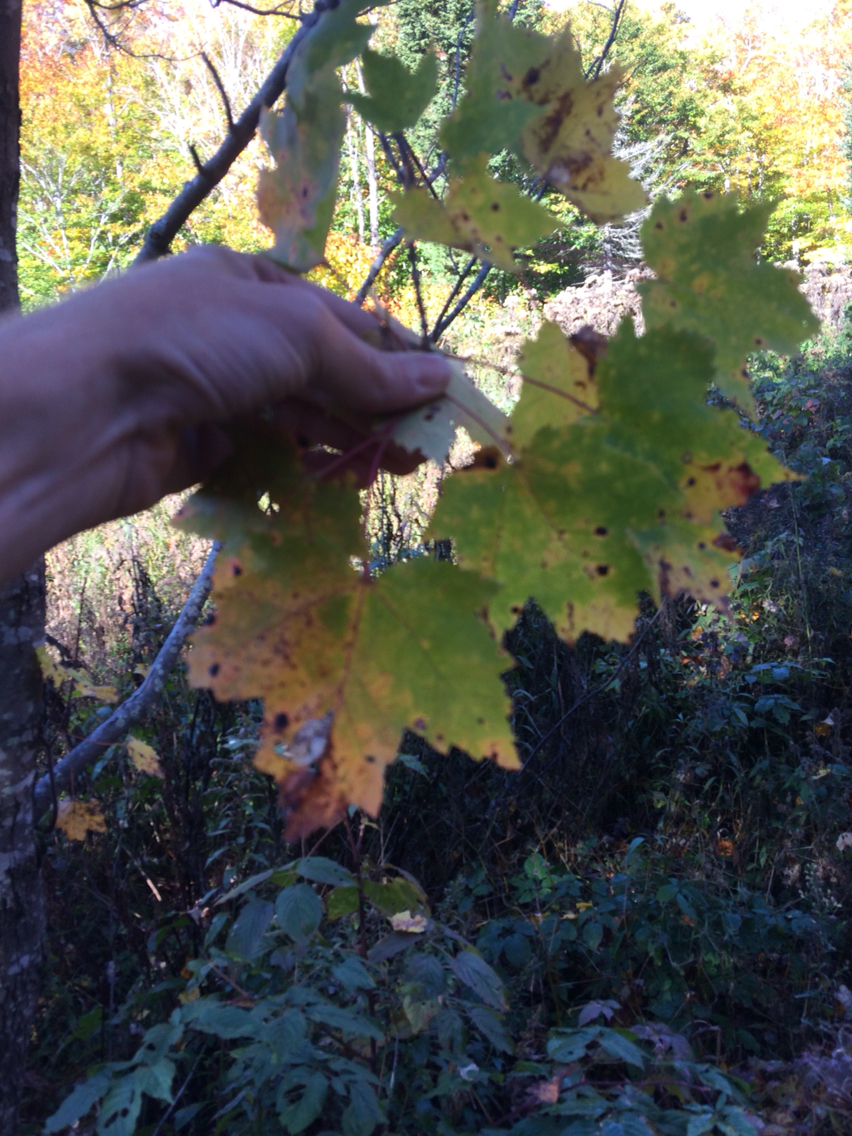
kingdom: Plantae
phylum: Tracheophyta
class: Magnoliopsida
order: Sapindales
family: Sapindaceae
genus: Acer
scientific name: Acer rubrum
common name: Red maple
